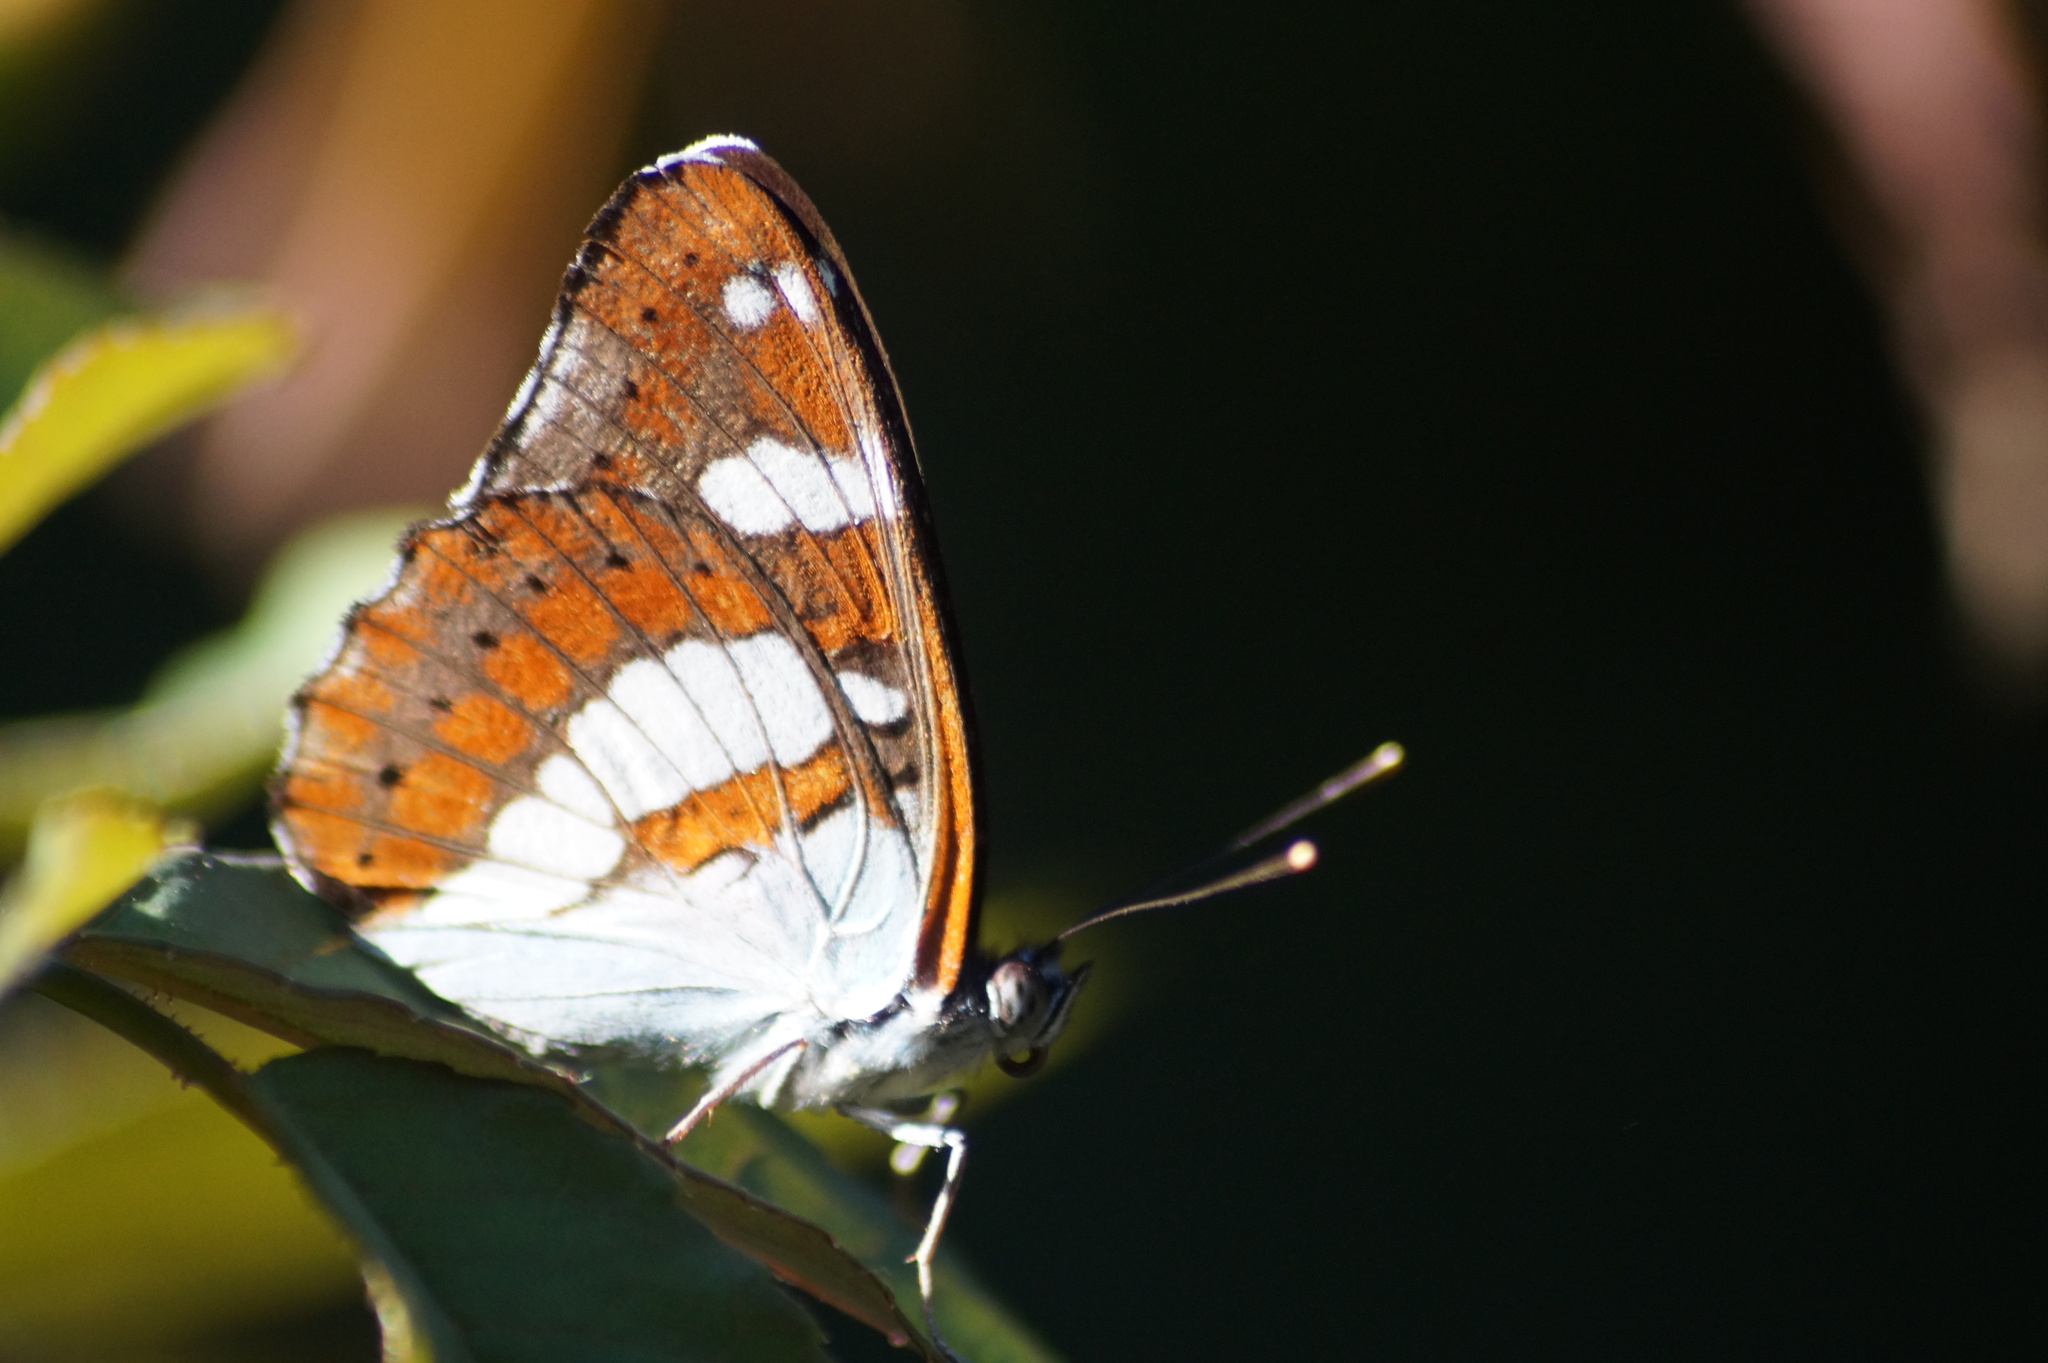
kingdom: Animalia
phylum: Arthropoda
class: Insecta
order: Lepidoptera
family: Nymphalidae
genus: Limenitis
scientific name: Limenitis reducta
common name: Southern white admiral
